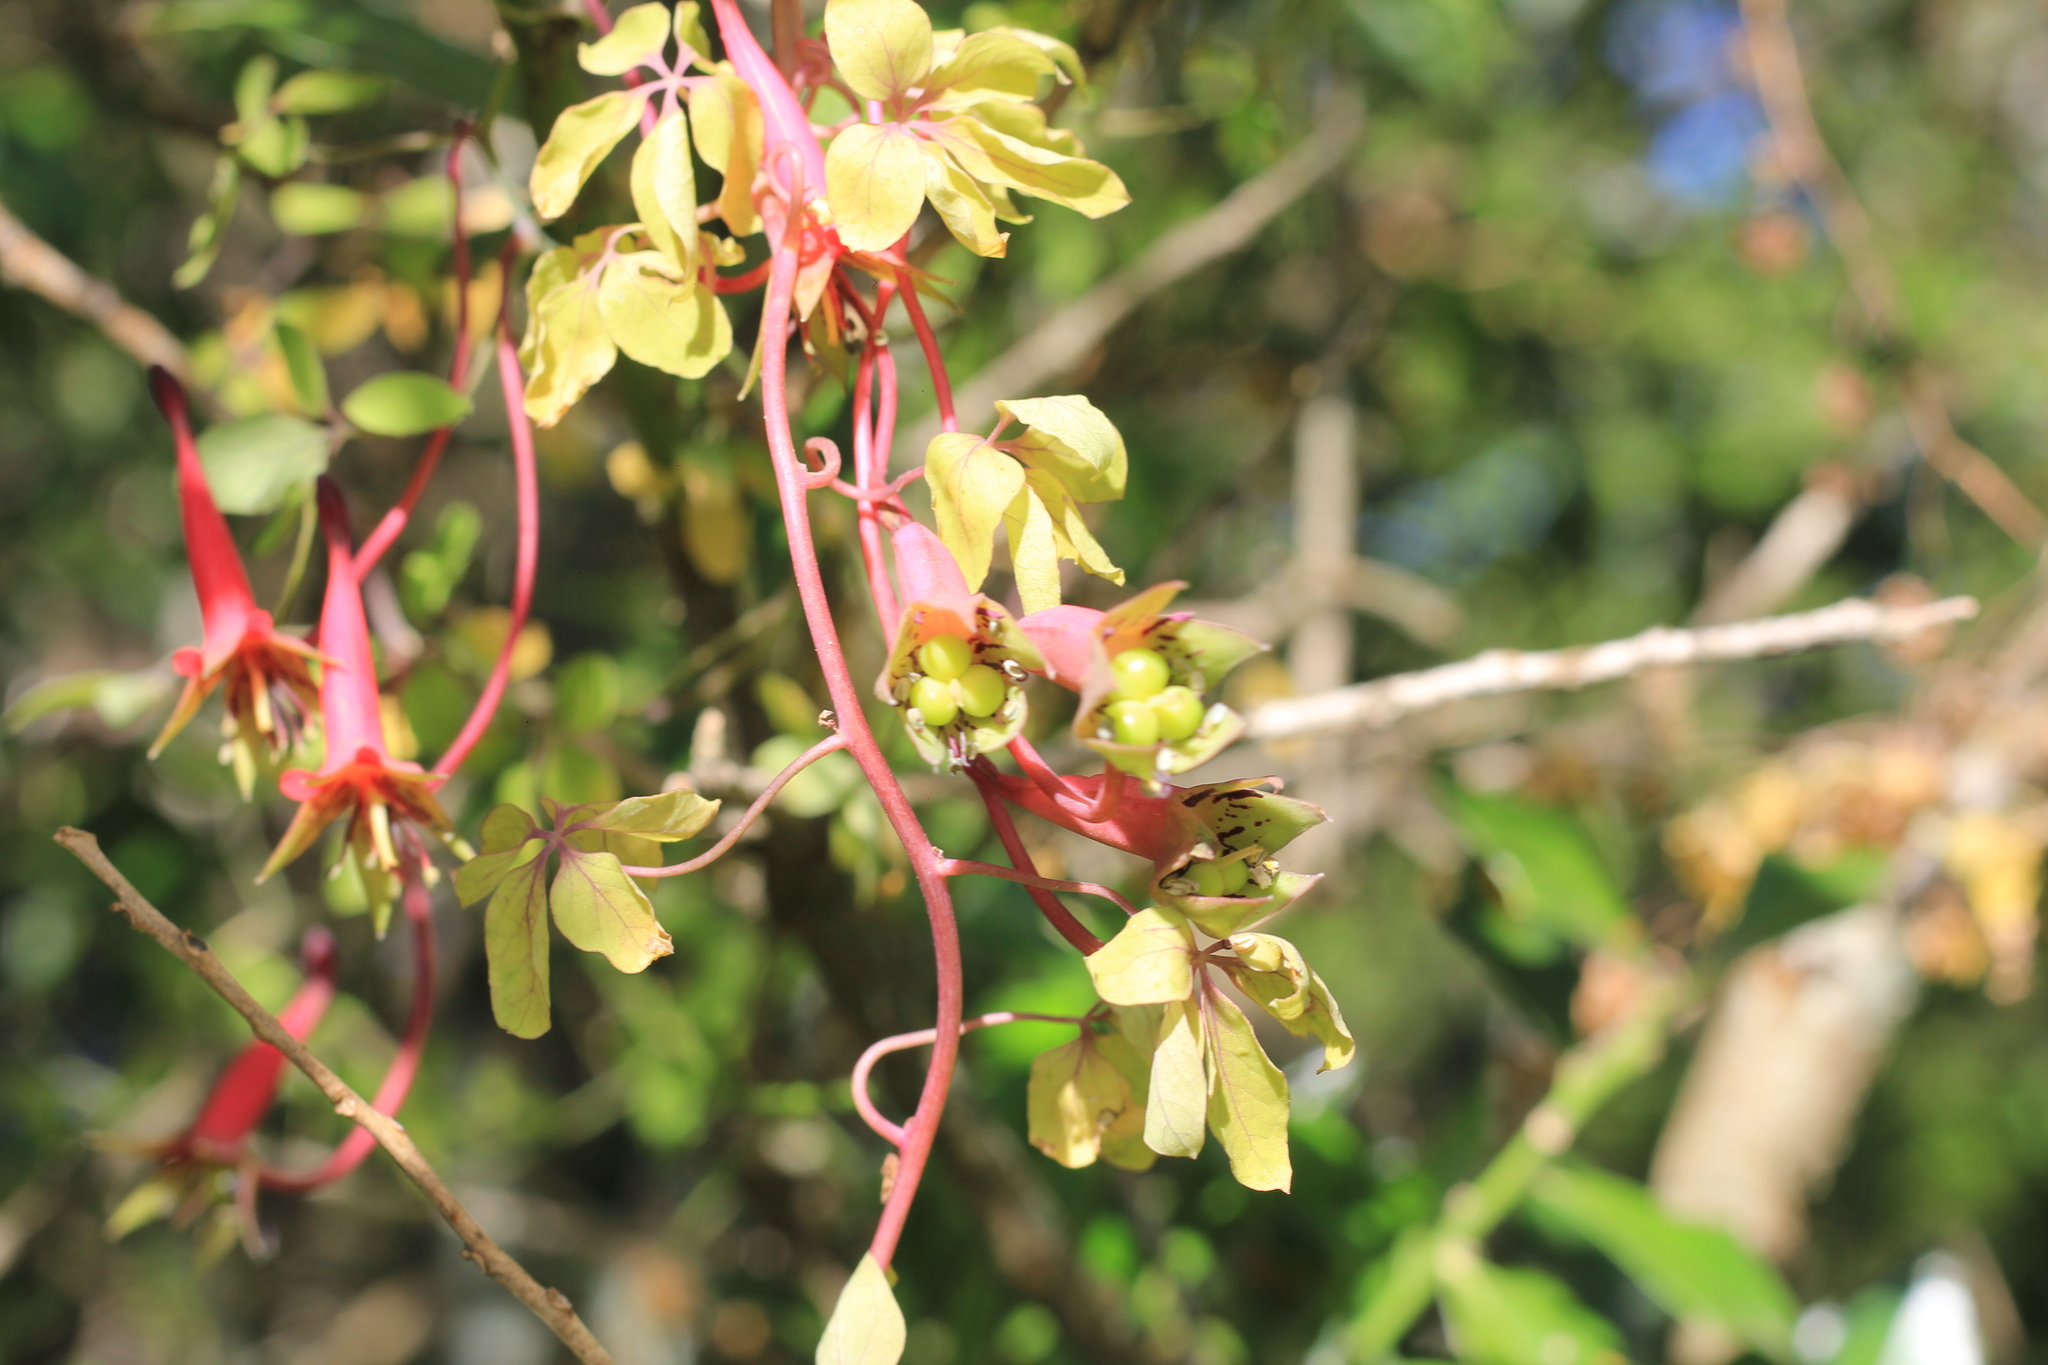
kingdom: Plantae
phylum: Tracheophyta
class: Magnoliopsida
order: Brassicales
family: Tropaeolaceae
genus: Tropaeolum
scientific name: Tropaeolum pentaphyllum
